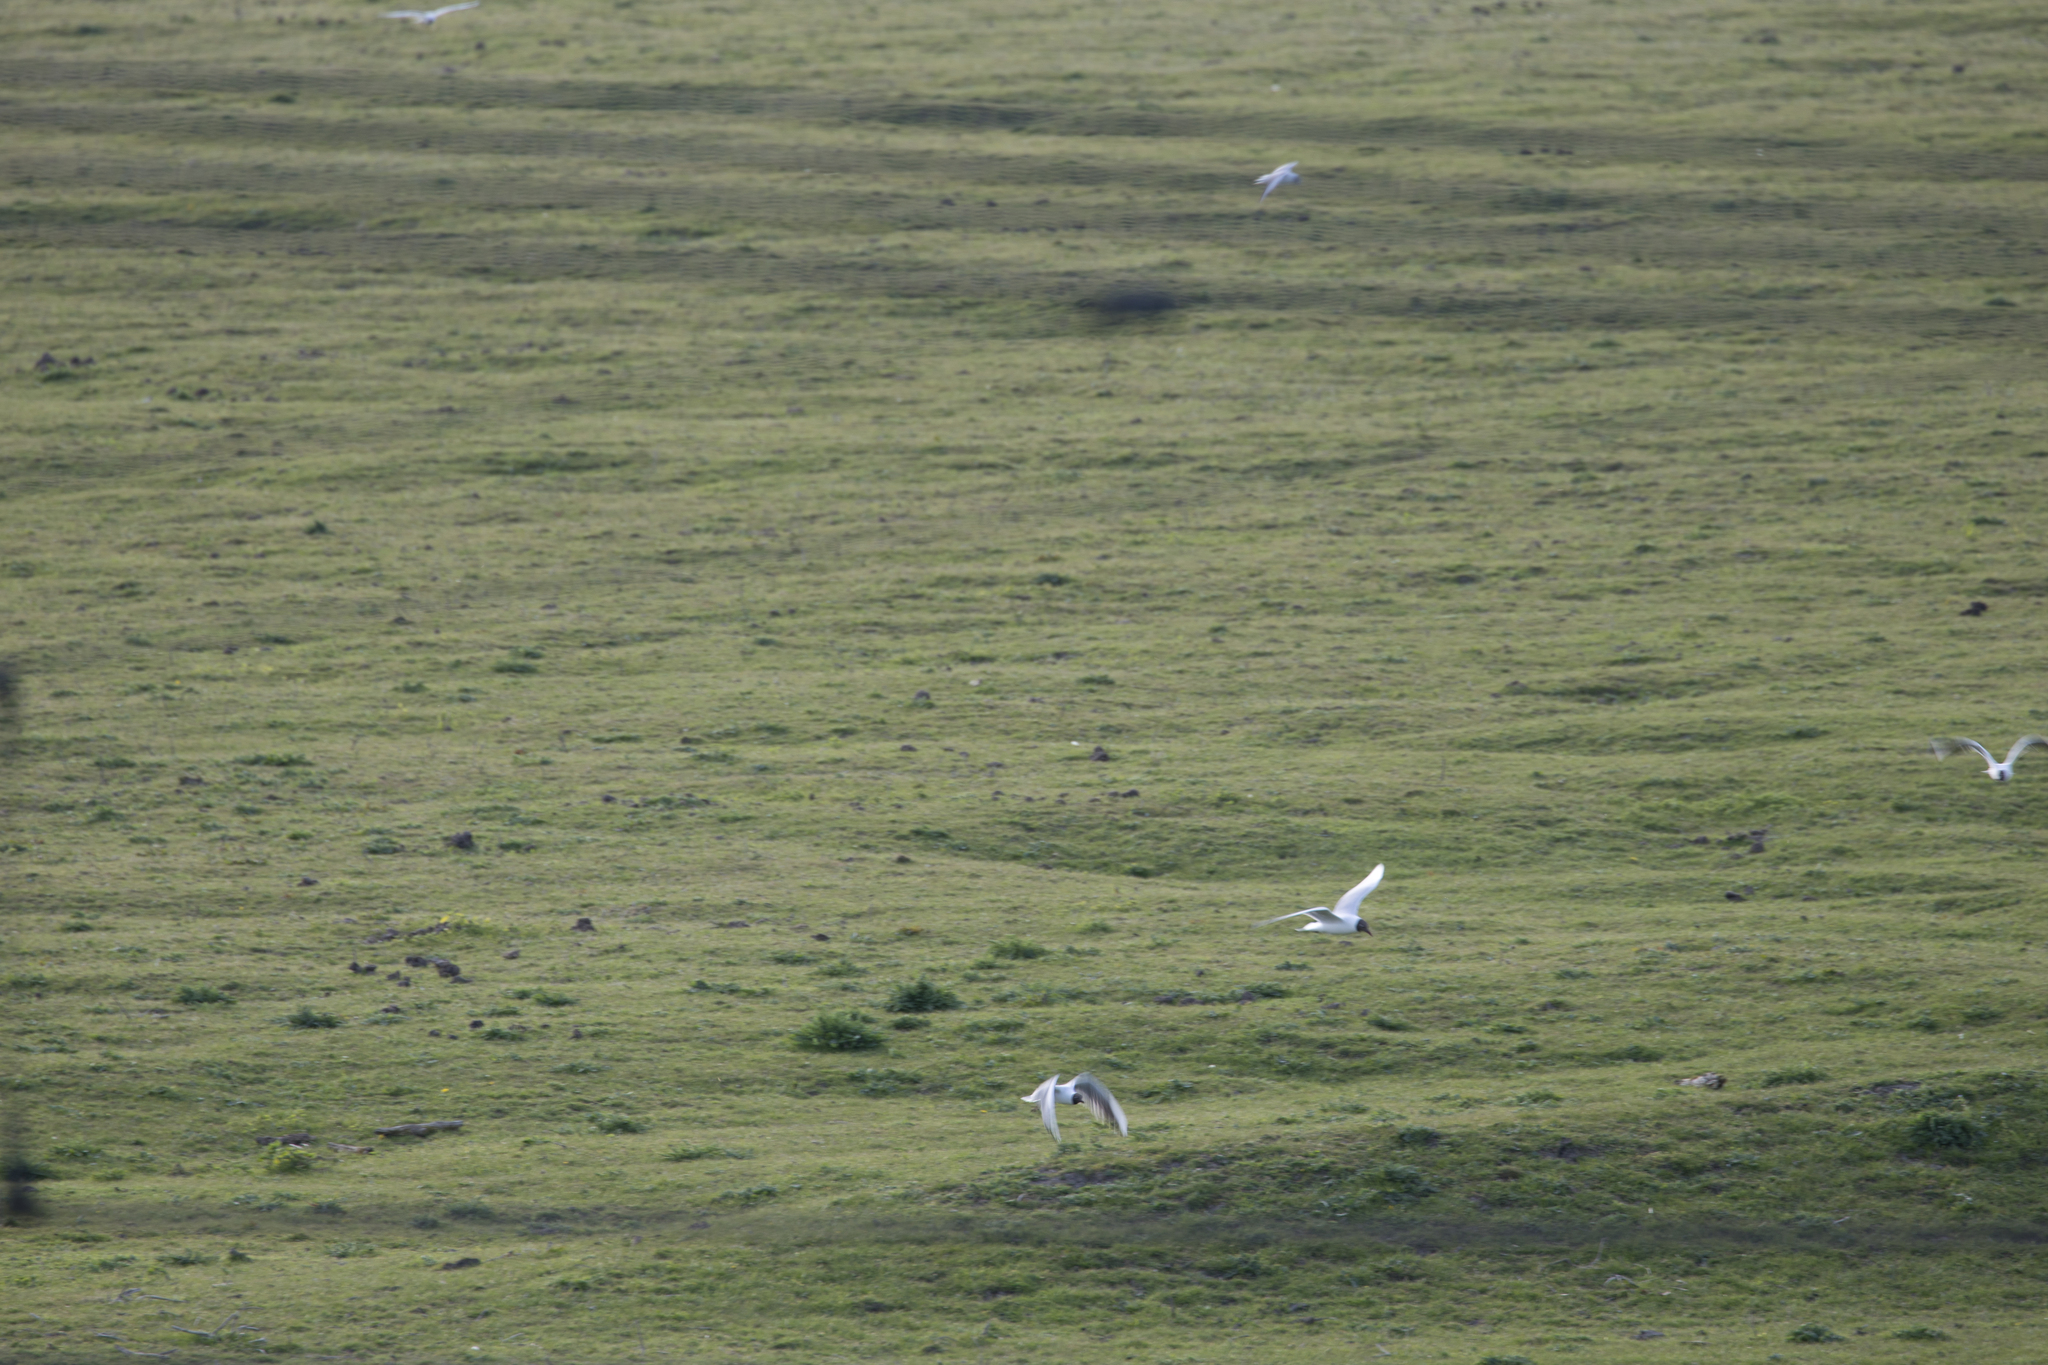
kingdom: Animalia
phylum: Chordata
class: Aves
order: Charadriiformes
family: Laridae
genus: Chroicocephalus
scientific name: Chroicocephalus ridibundus
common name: Black-headed gull
